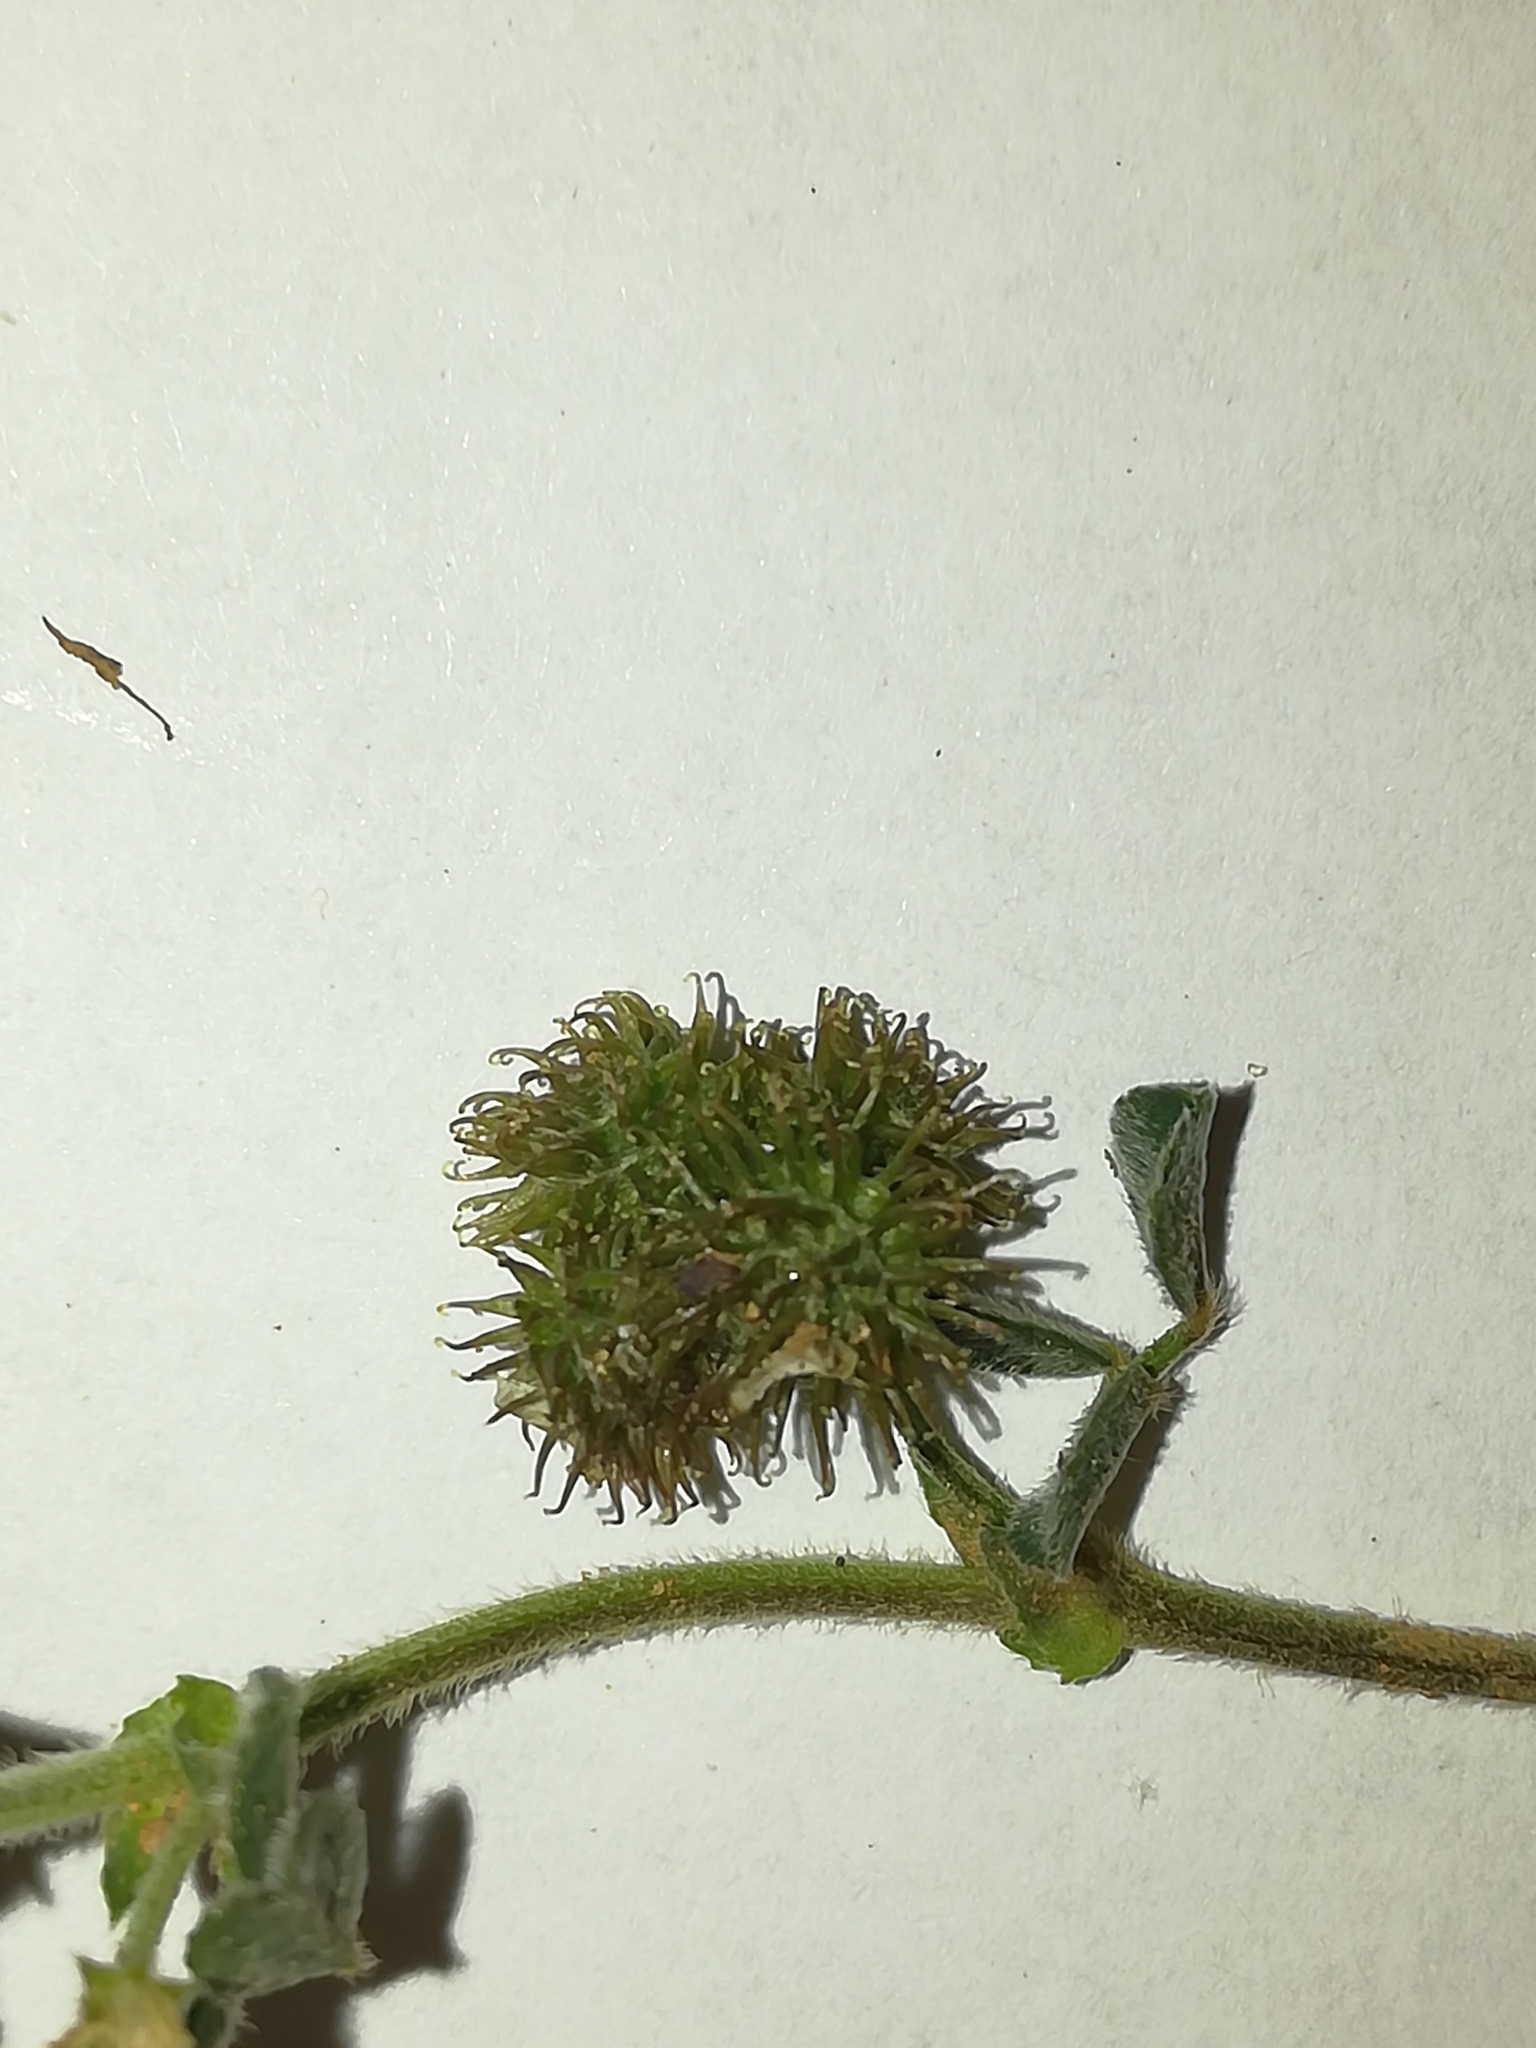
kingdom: Plantae
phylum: Tracheophyta
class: Magnoliopsida
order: Fabales
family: Fabaceae
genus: Medicago
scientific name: Medicago minima
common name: Little bur-clover
